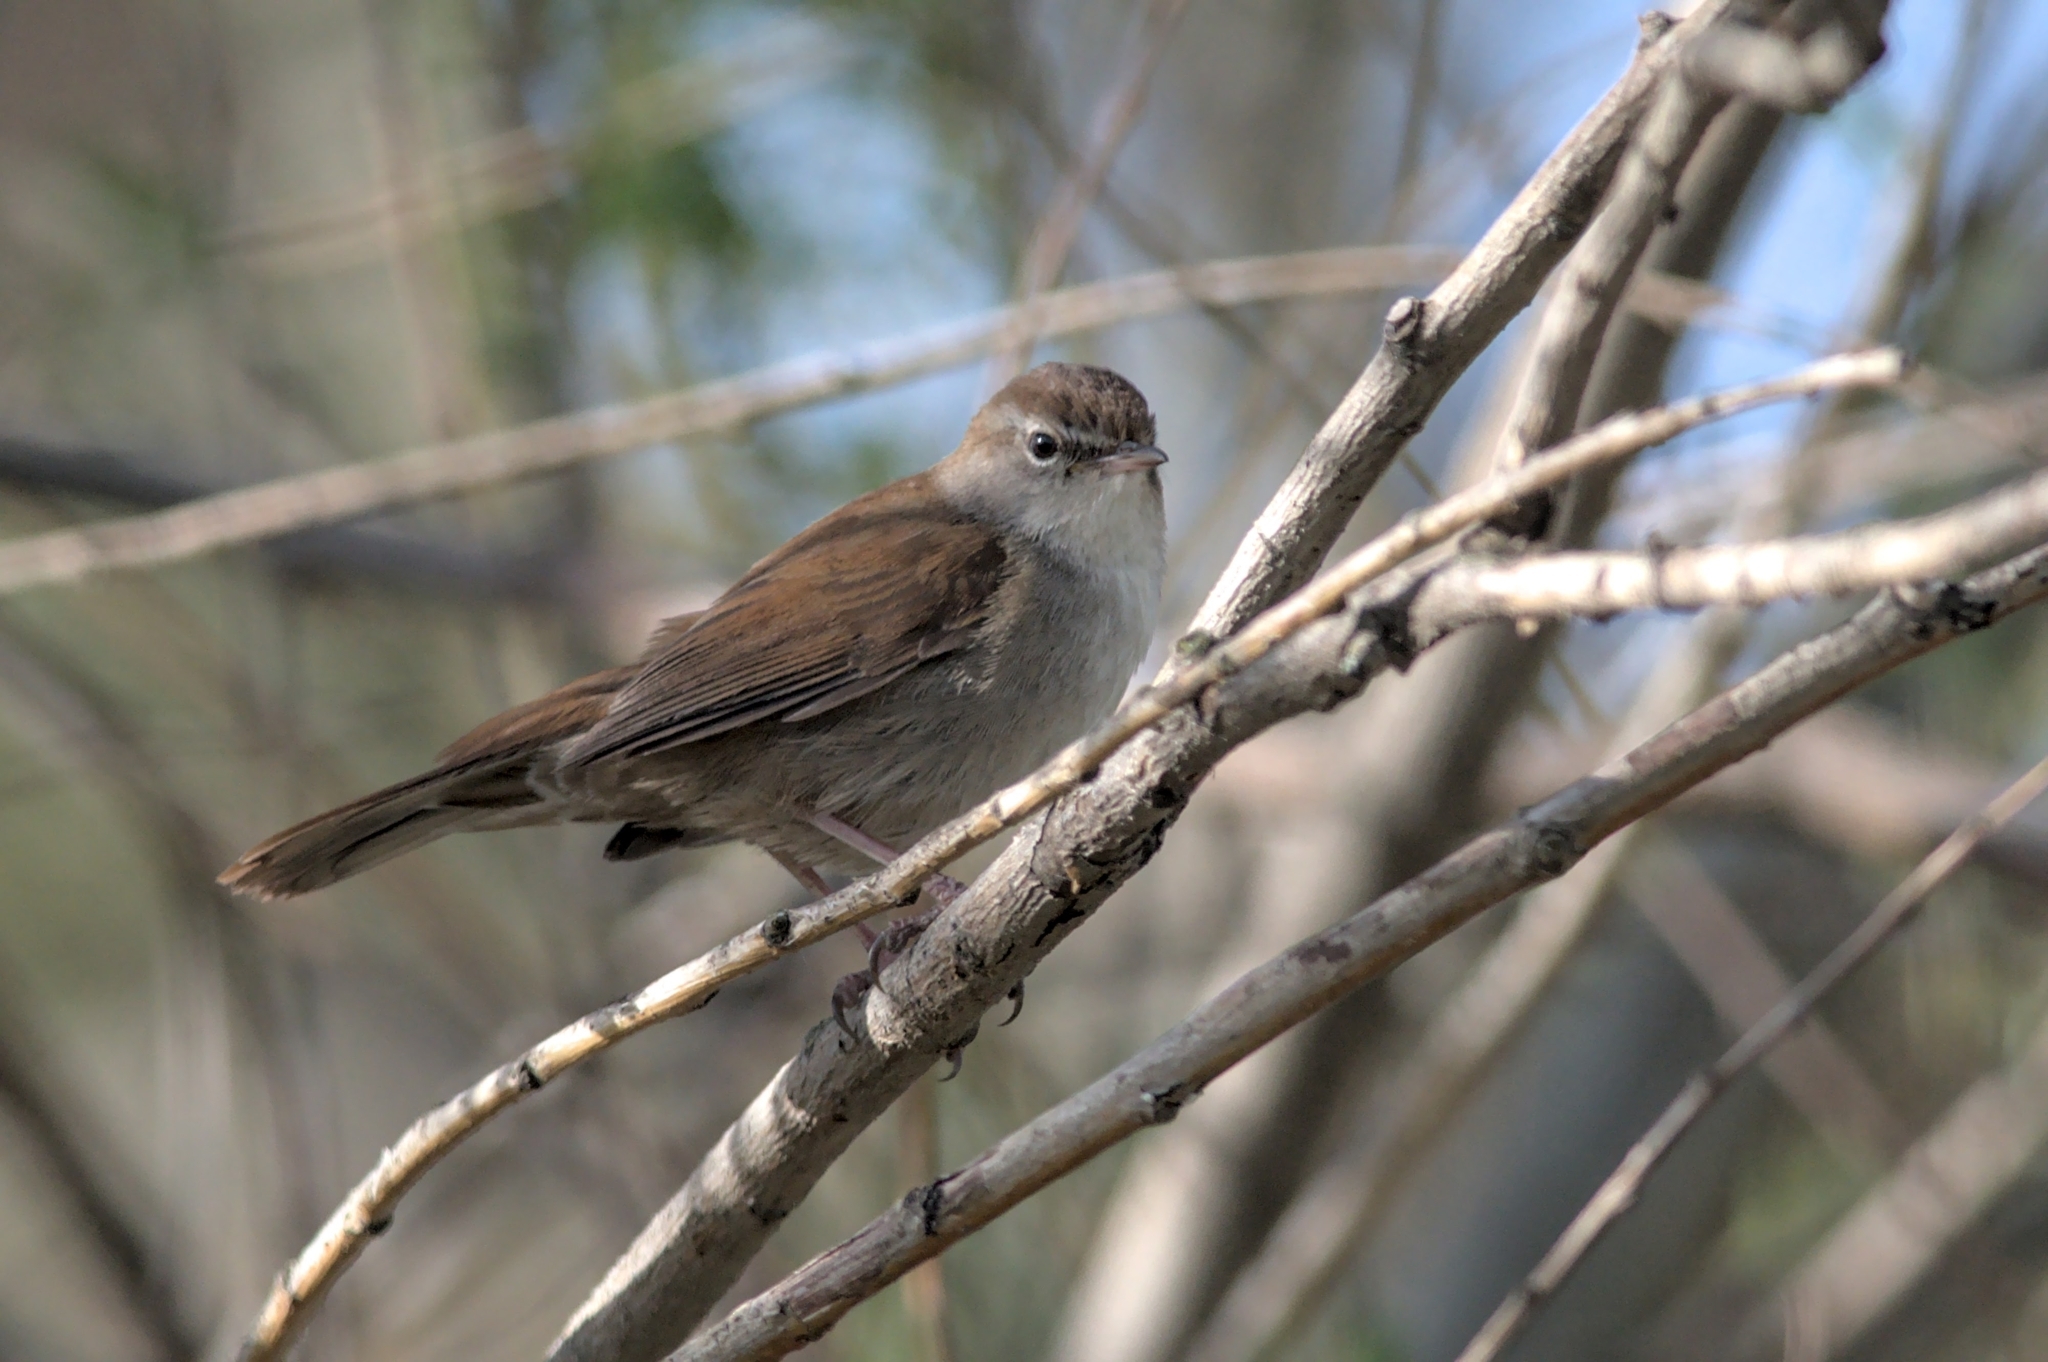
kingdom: Animalia
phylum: Chordata
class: Aves
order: Passeriformes
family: Cettiidae
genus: Cettia
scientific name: Cettia cetti
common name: Cetti's warbler
